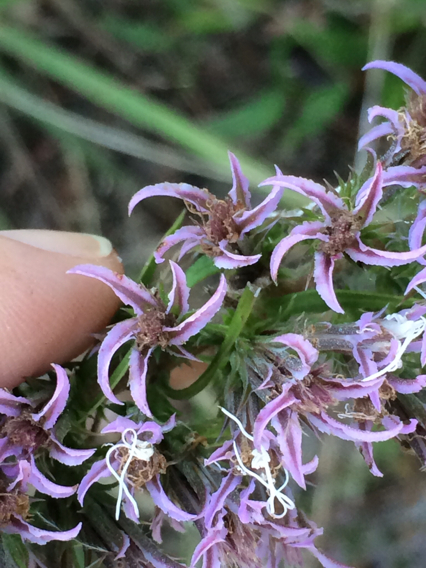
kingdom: Plantae
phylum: Tracheophyta
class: Magnoliopsida
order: Asterales
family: Asteraceae
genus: Liatris
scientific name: Liatris hesperelegans
